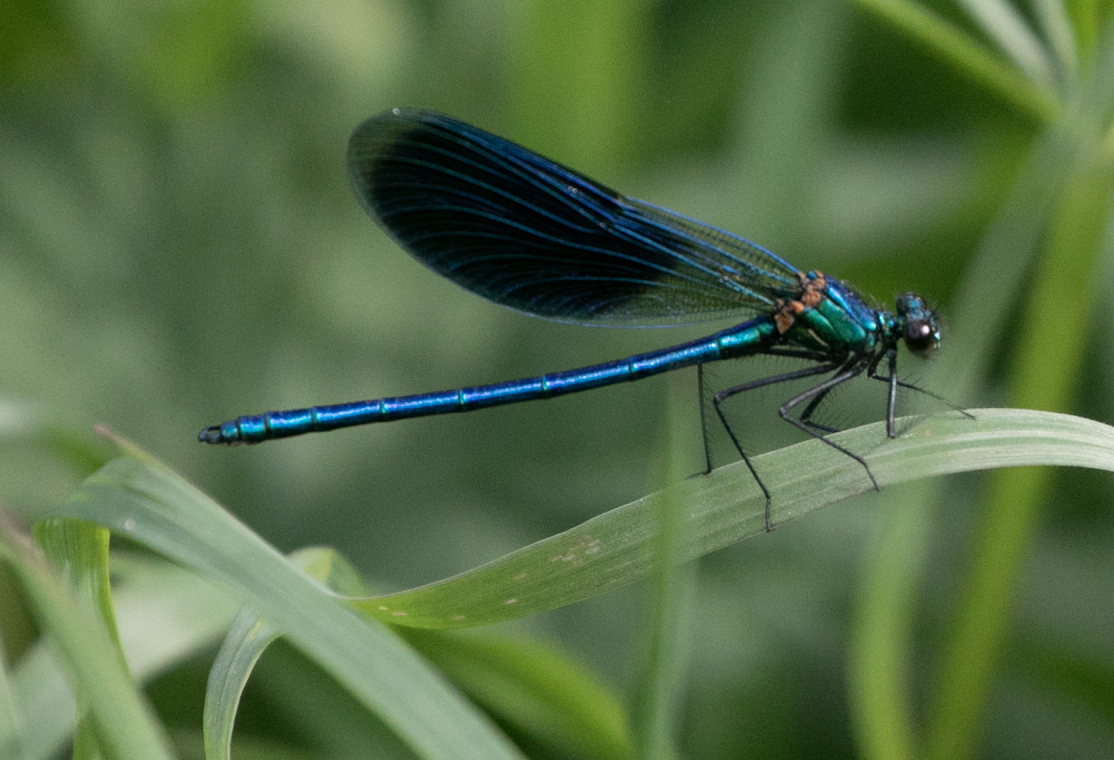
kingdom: Animalia
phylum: Arthropoda
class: Insecta
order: Odonata
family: Calopterygidae
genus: Calopteryx
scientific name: Calopteryx splendens
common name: Banded demoiselle
